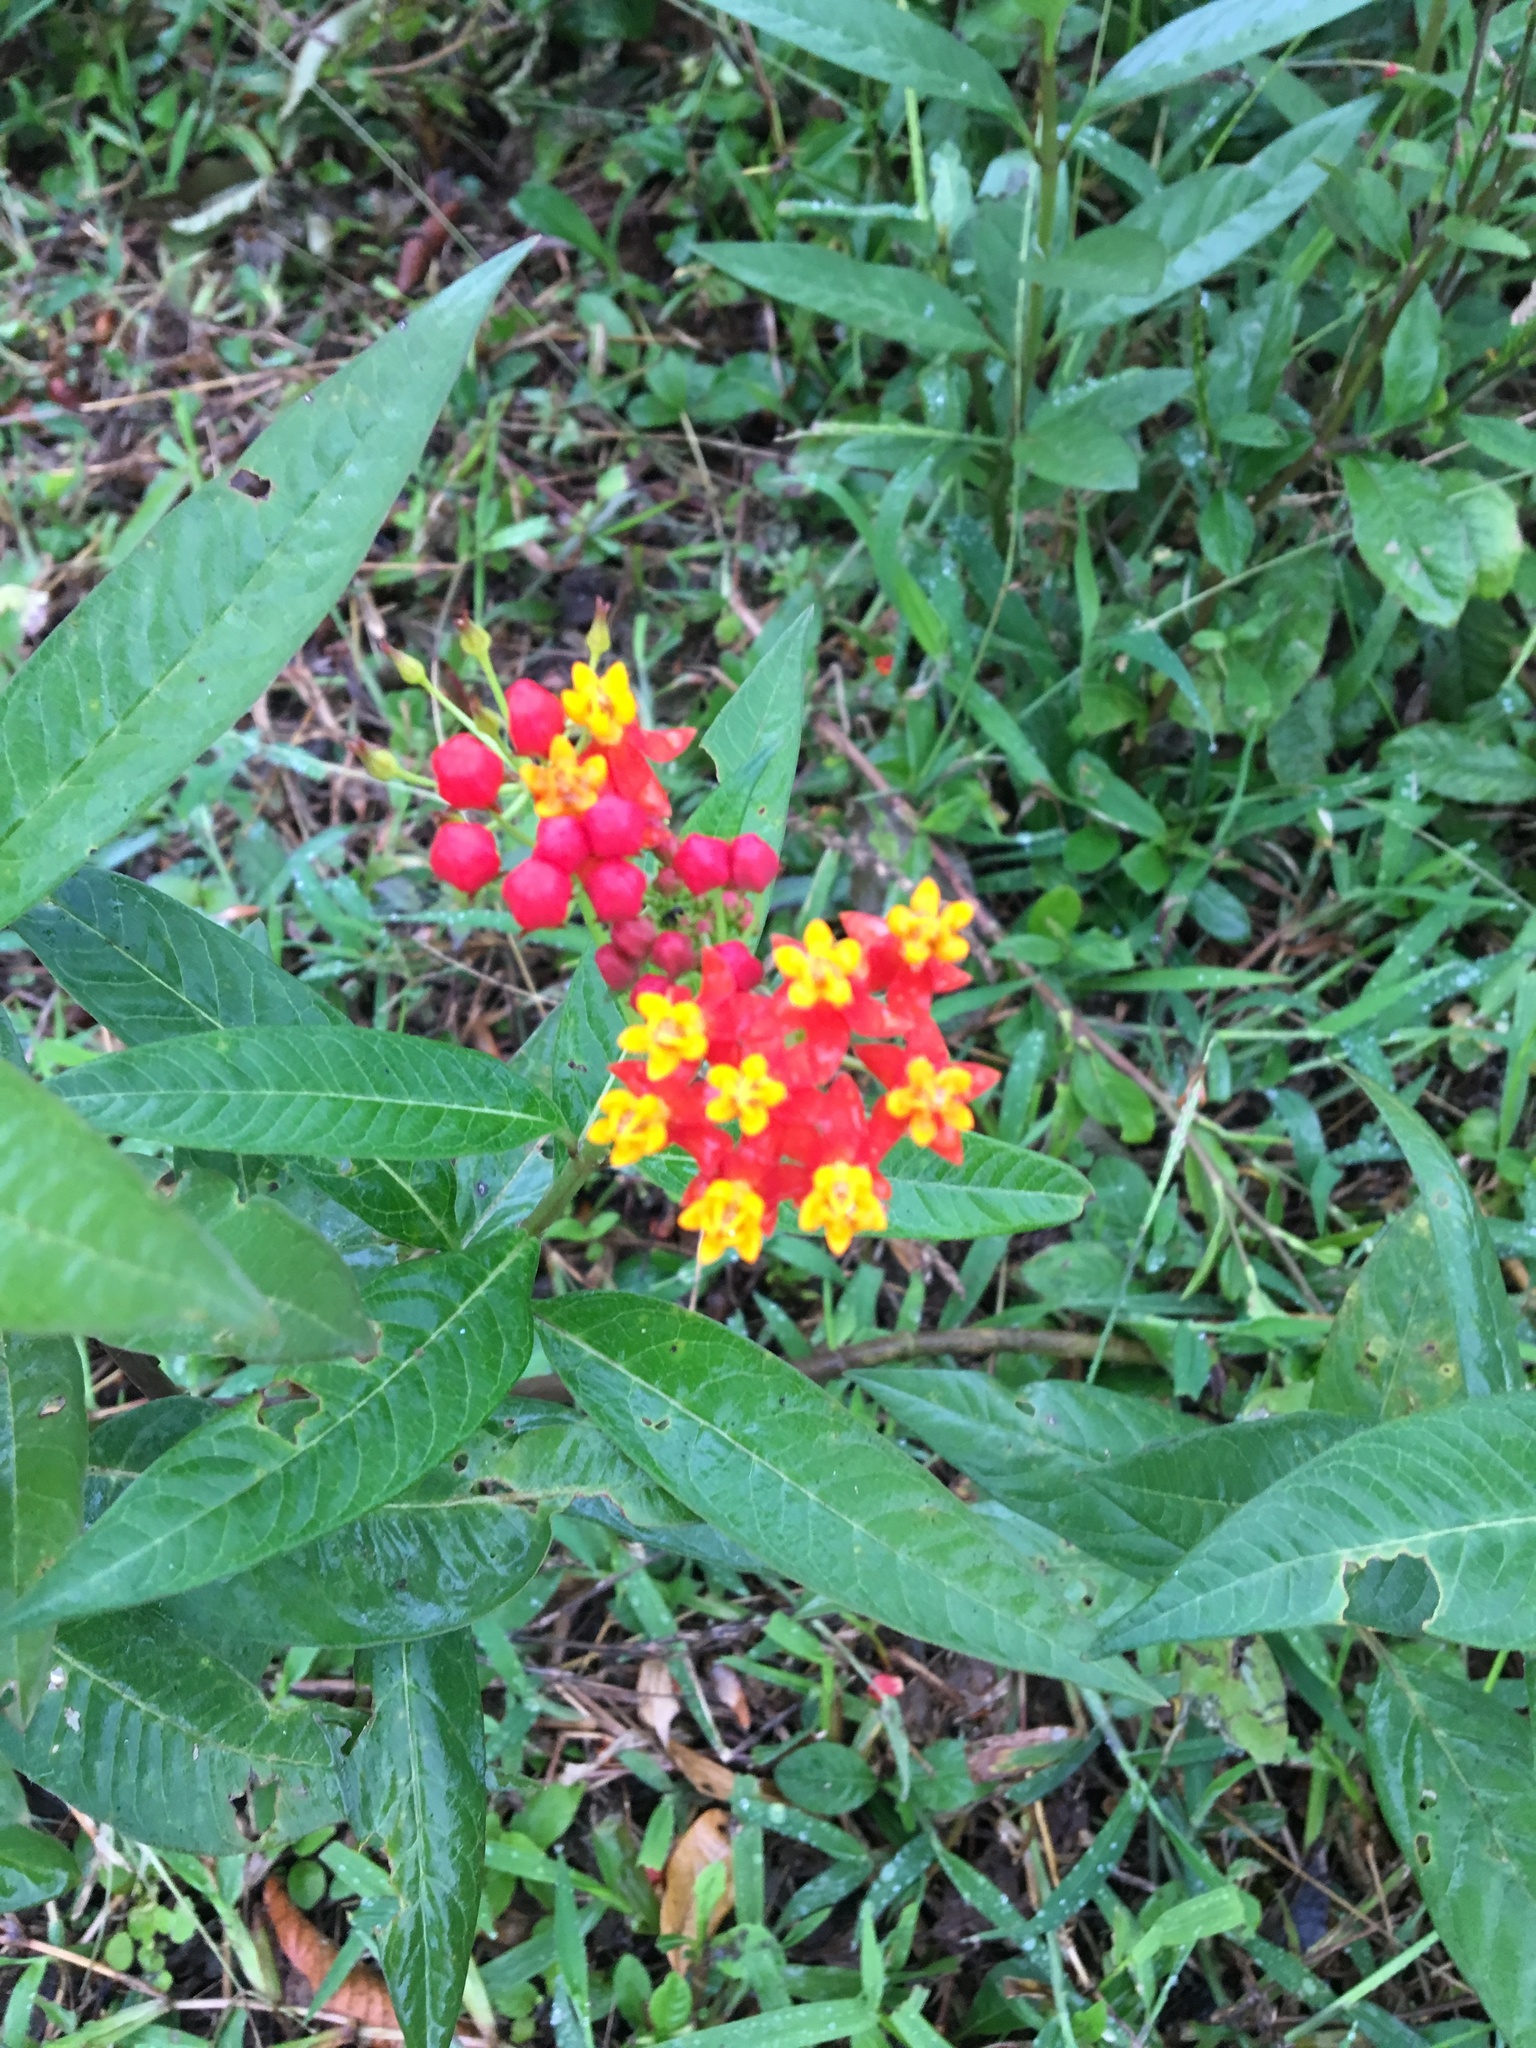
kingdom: Plantae
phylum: Tracheophyta
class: Magnoliopsida
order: Gentianales
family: Apocynaceae
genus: Asclepias
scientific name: Asclepias curassavica
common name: Bloodflower
